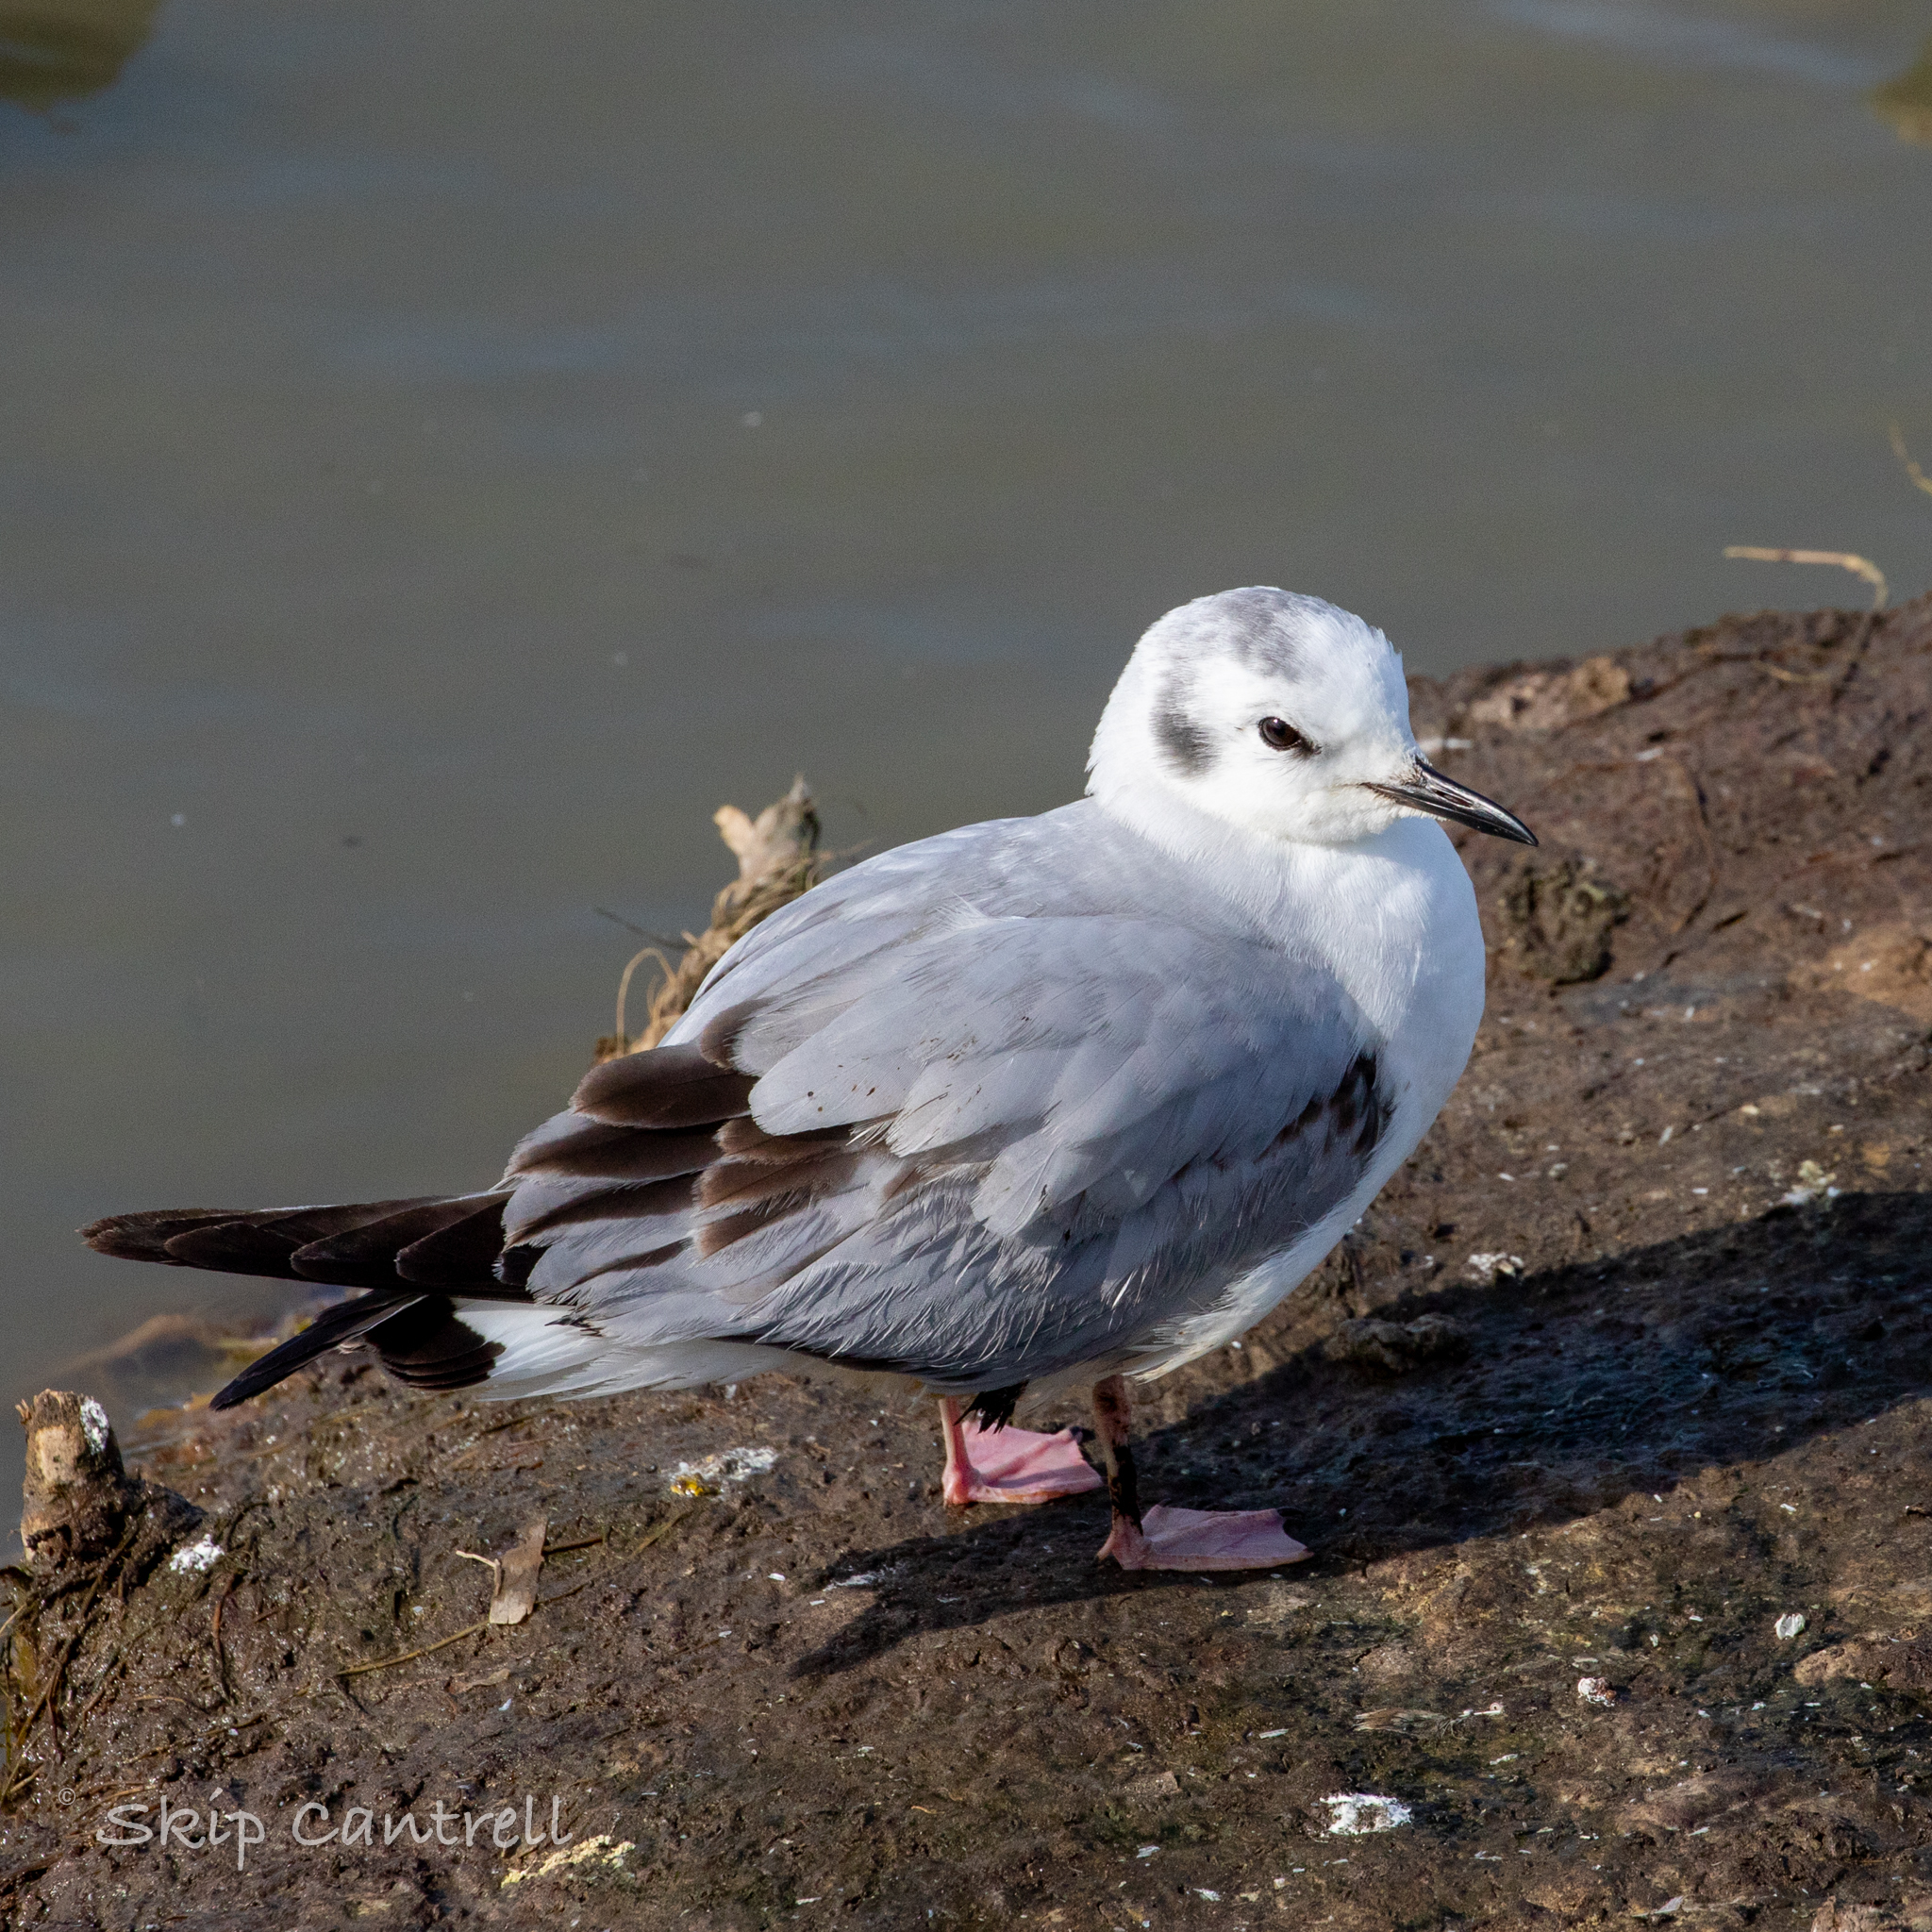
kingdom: Animalia
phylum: Chordata
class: Aves
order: Charadriiformes
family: Laridae
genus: Chroicocephalus
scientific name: Chroicocephalus philadelphia
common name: Bonaparte's gull
